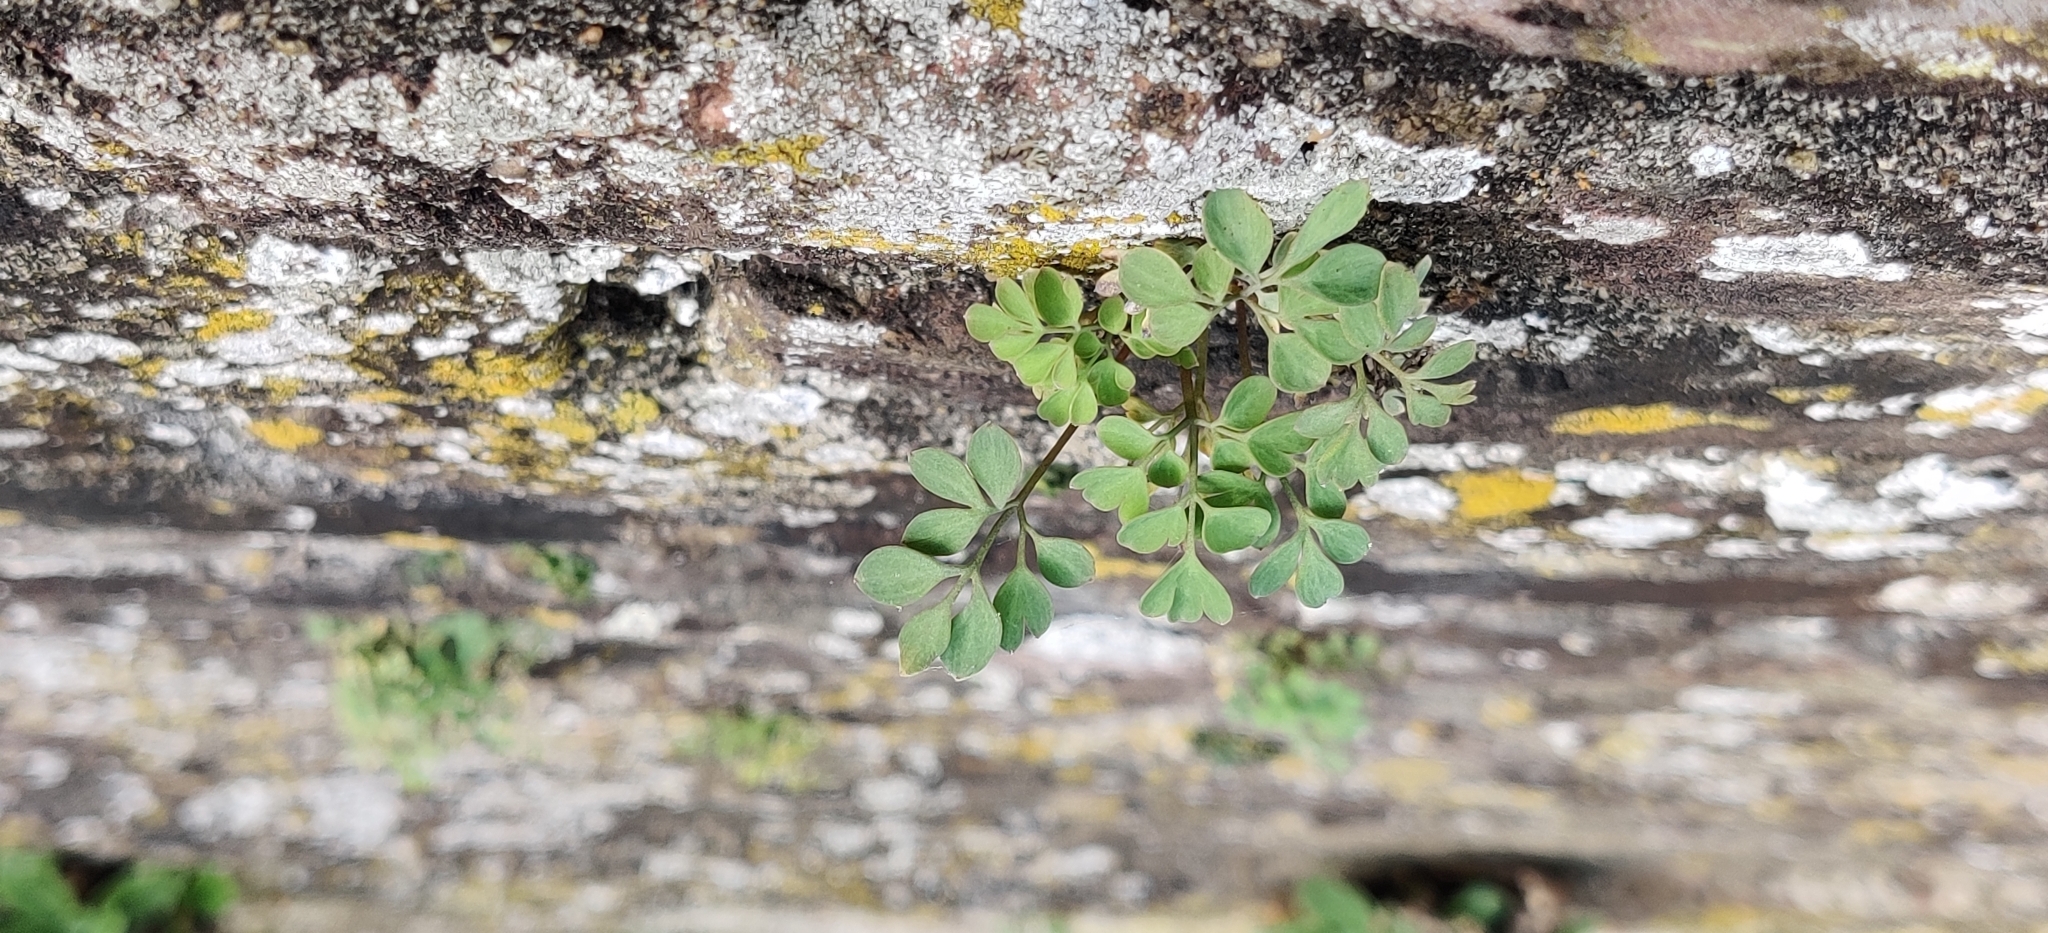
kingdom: Plantae
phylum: Tracheophyta
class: Magnoliopsida
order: Ranunculales
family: Papaveraceae
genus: Pseudofumaria
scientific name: Pseudofumaria lutea
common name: Yellow corydalis
